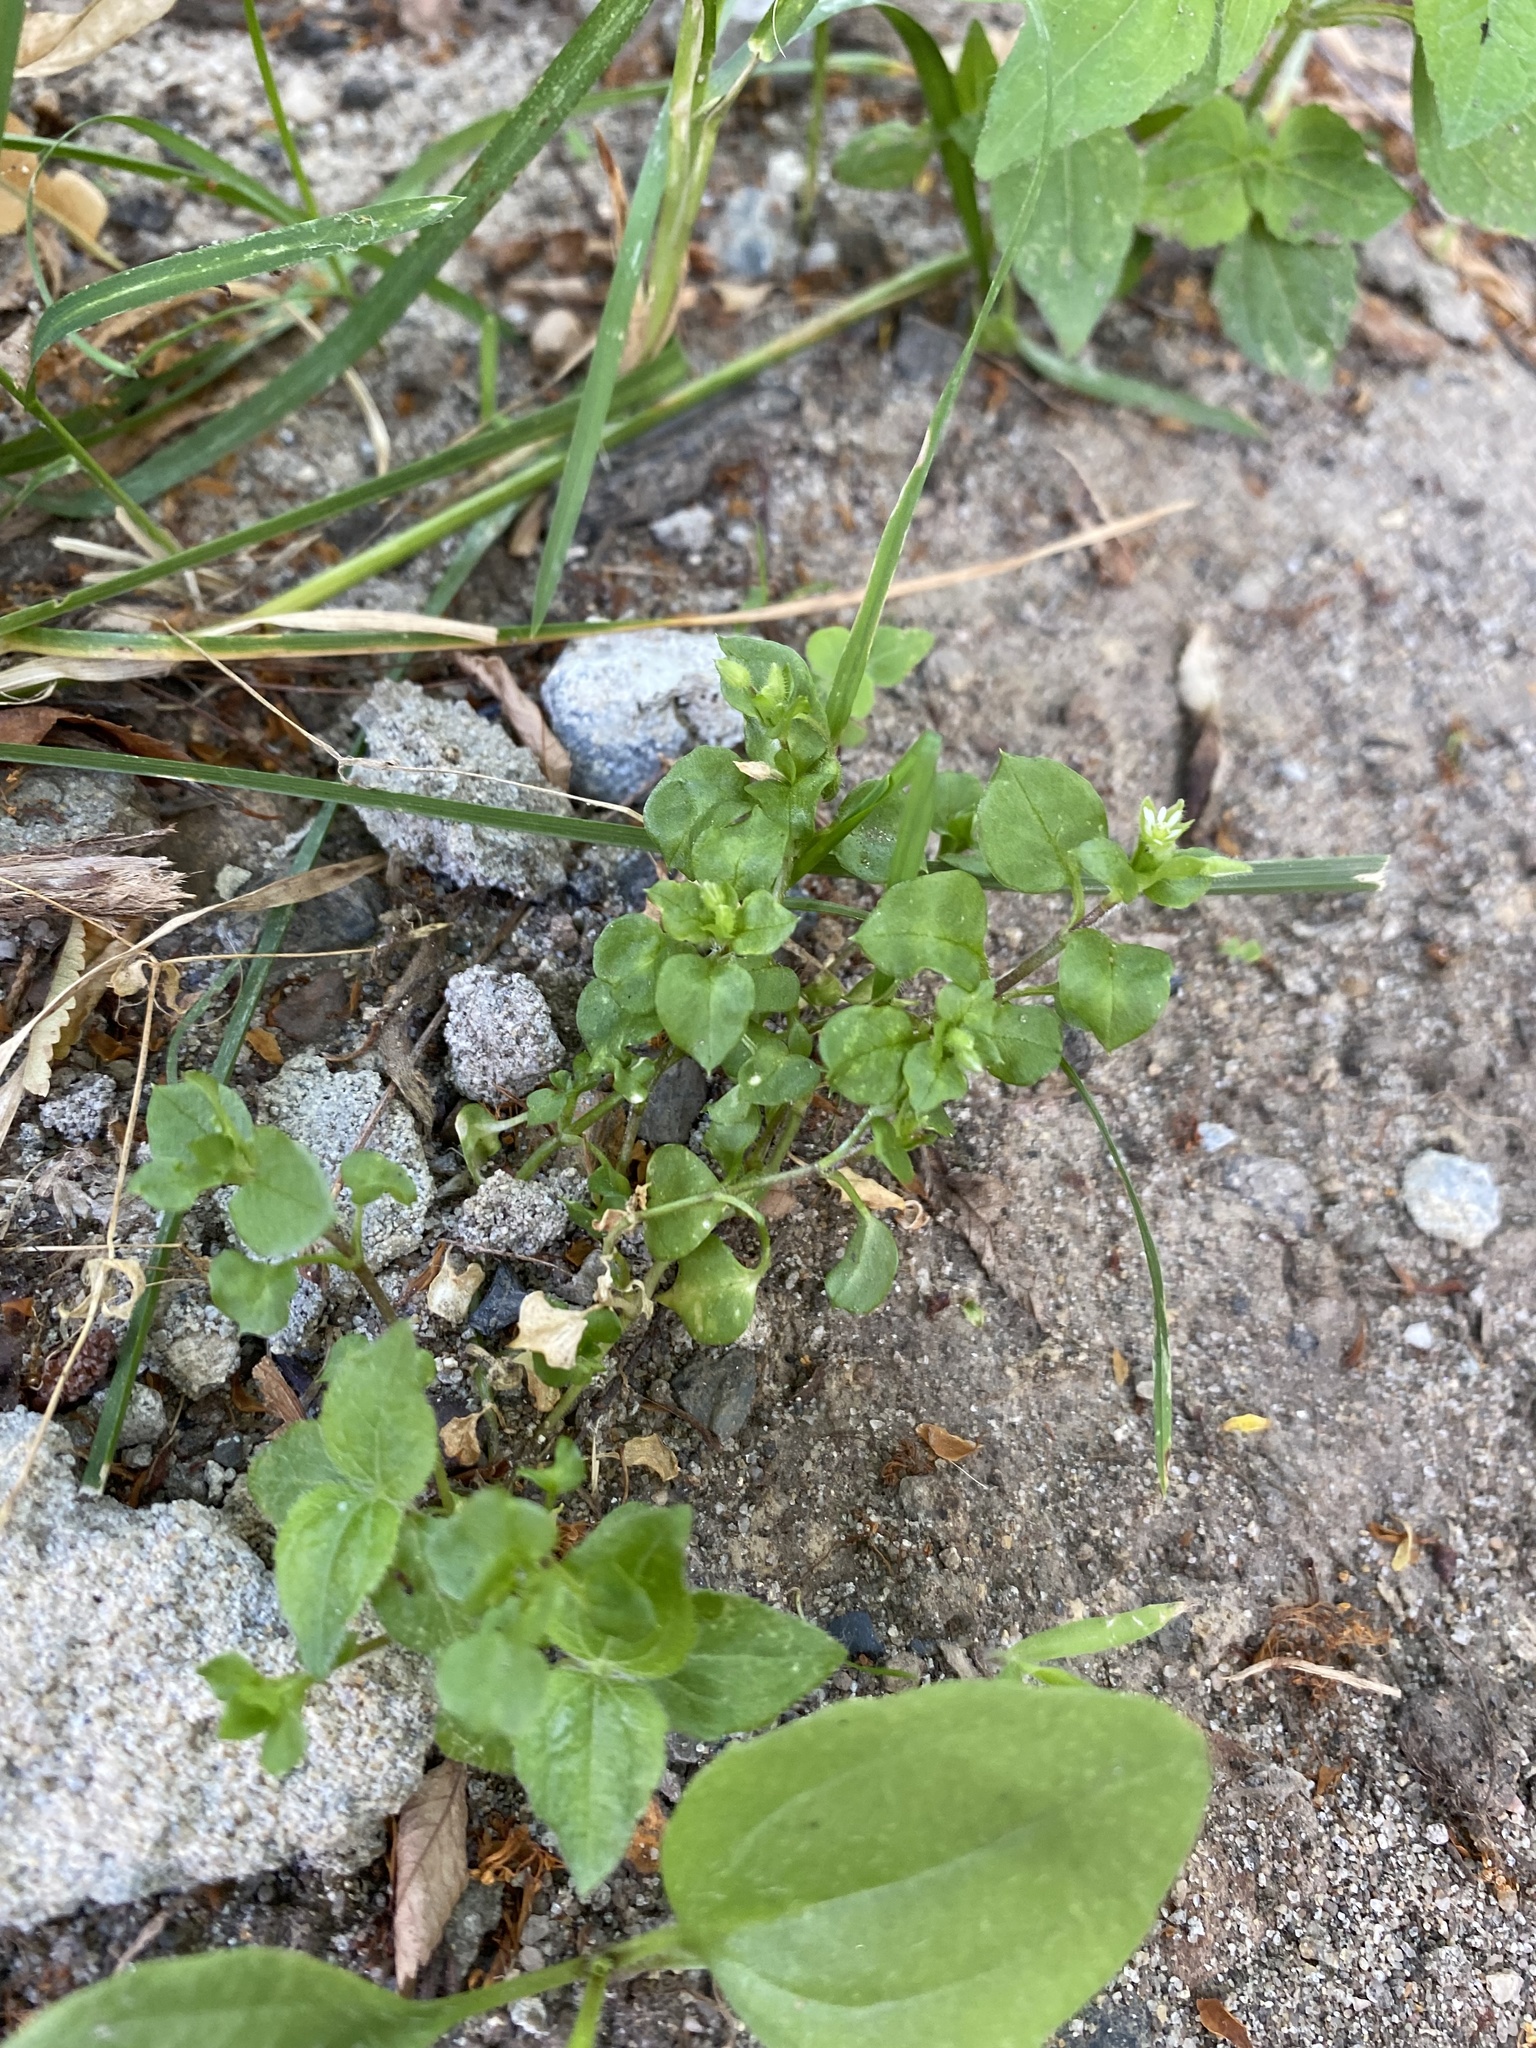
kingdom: Plantae
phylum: Tracheophyta
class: Magnoliopsida
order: Caryophyllales
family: Caryophyllaceae
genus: Stellaria
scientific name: Stellaria media
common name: Common chickweed
